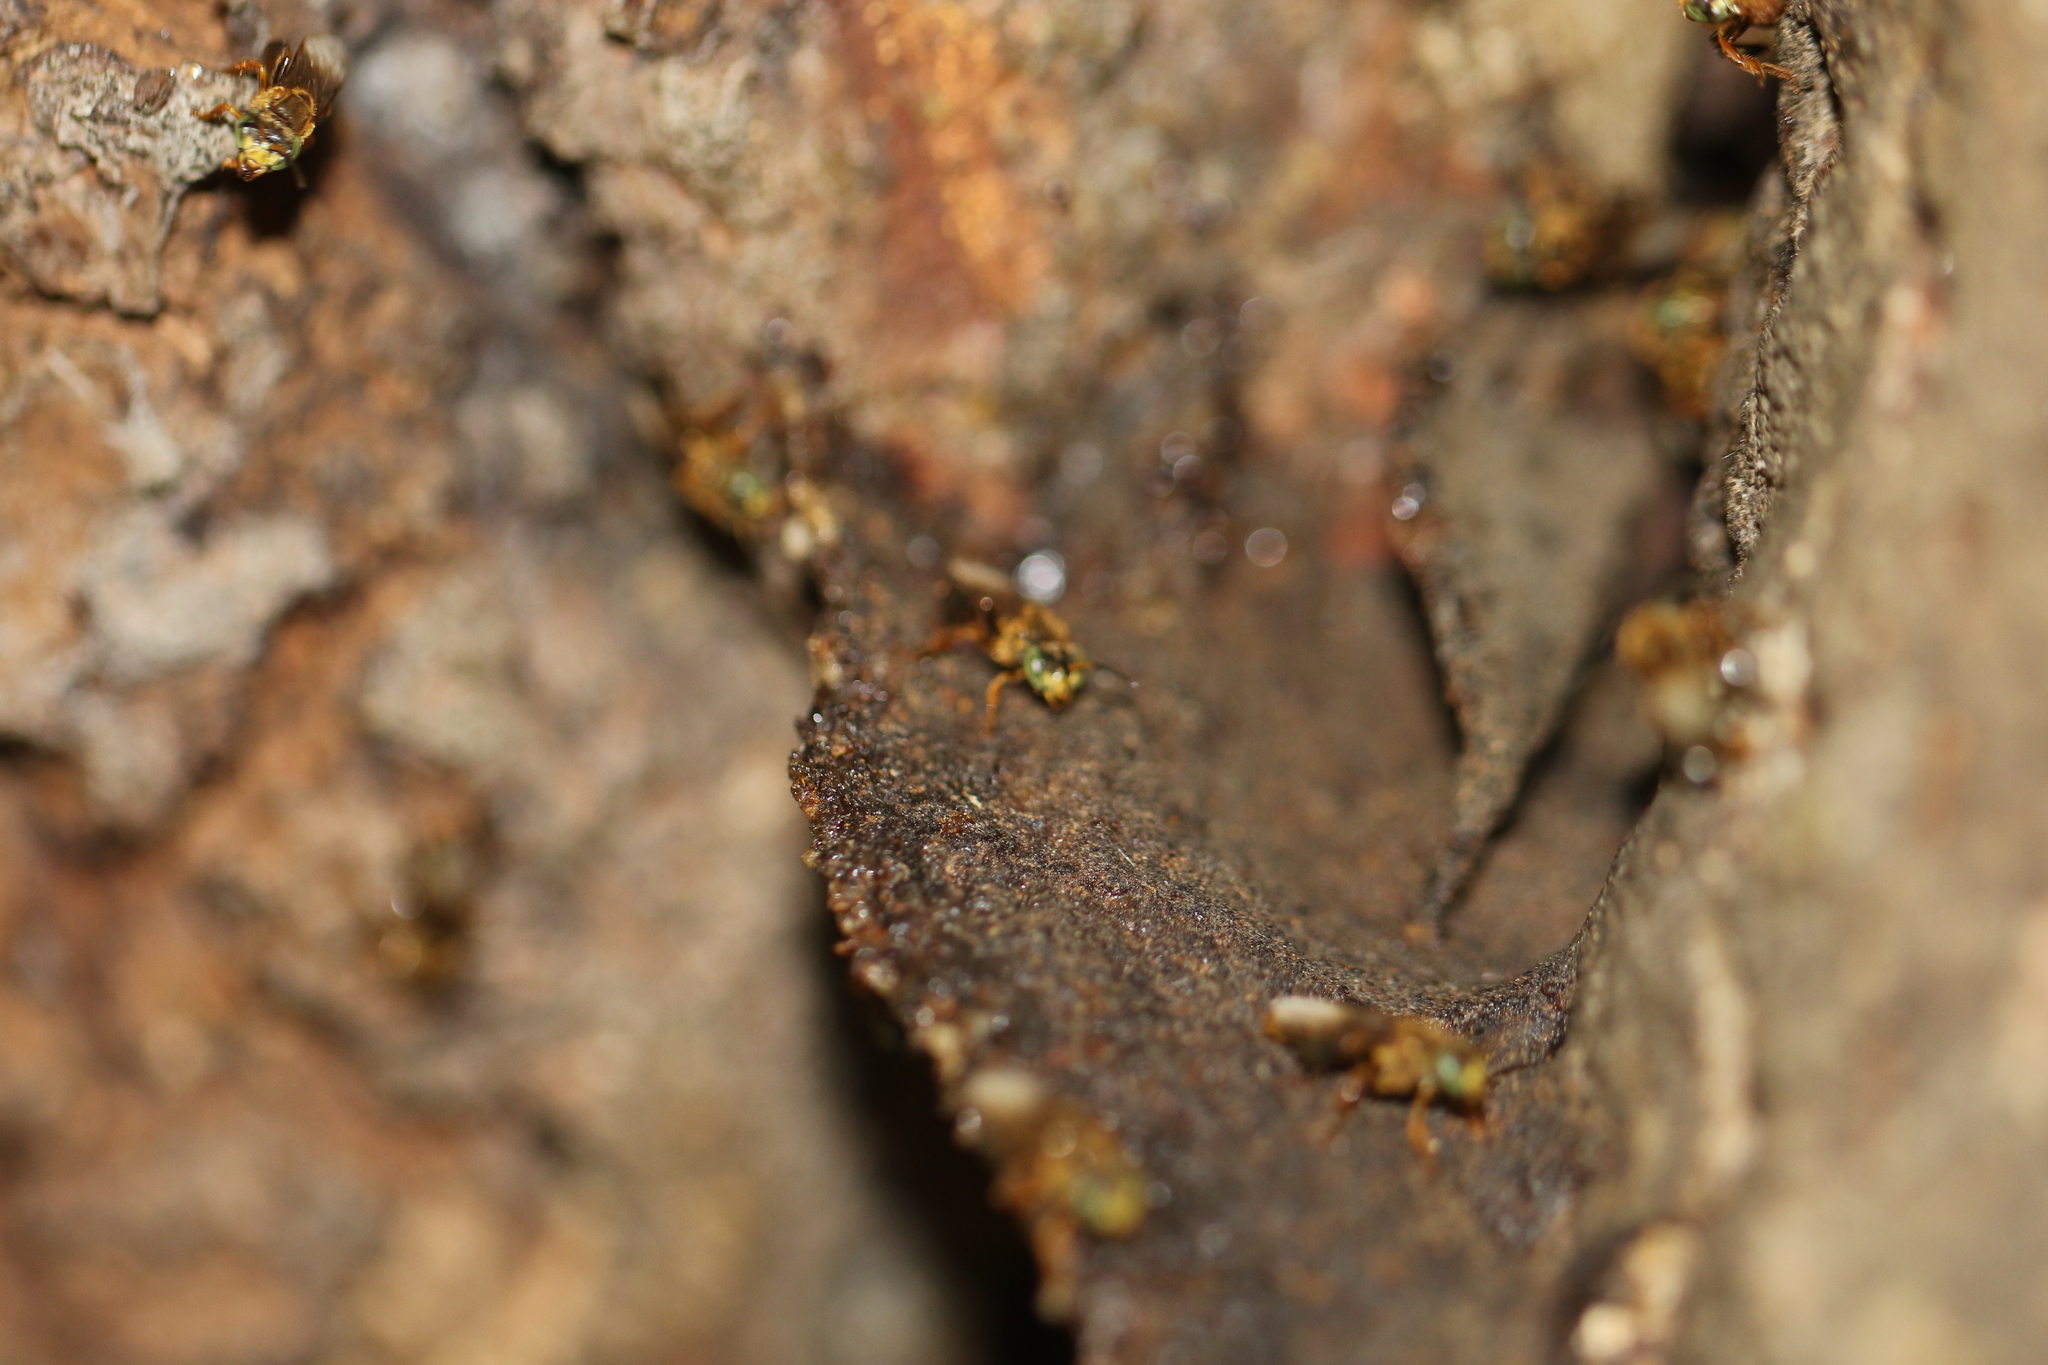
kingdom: Animalia
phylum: Arthropoda
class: Insecta
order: Hymenoptera
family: Apidae
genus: Tetragona
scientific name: Tetragona clavipes
